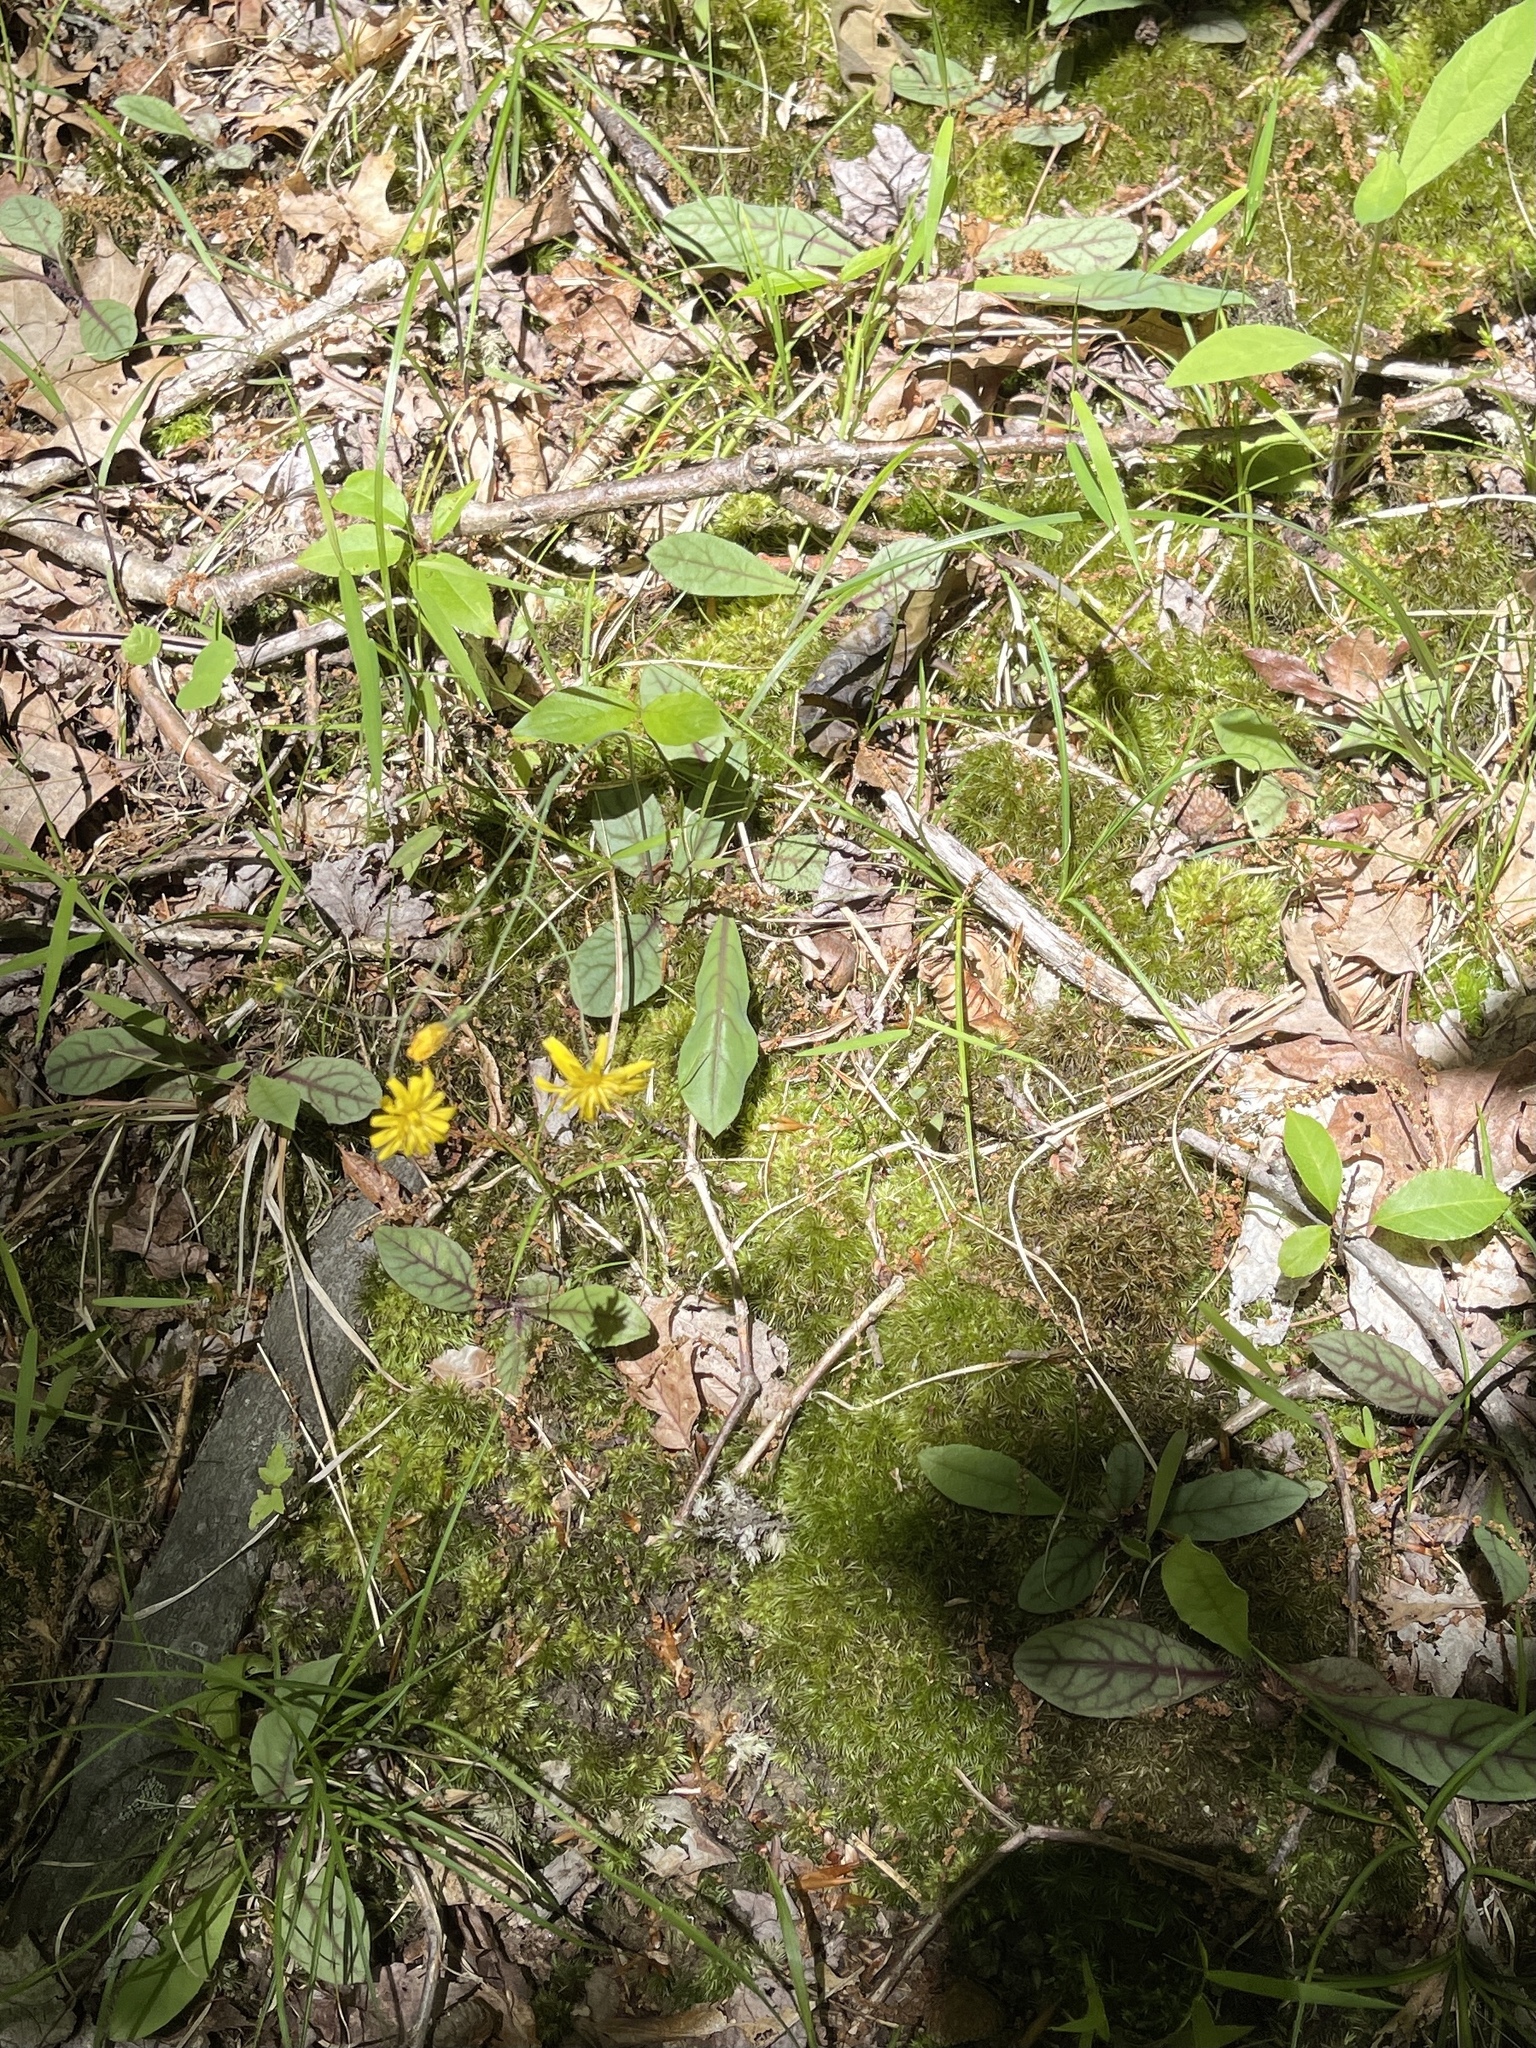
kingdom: Plantae
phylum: Tracheophyta
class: Magnoliopsida
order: Asterales
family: Asteraceae
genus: Hieracium
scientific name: Hieracium venosum
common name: Rattlesnake hawkweed
